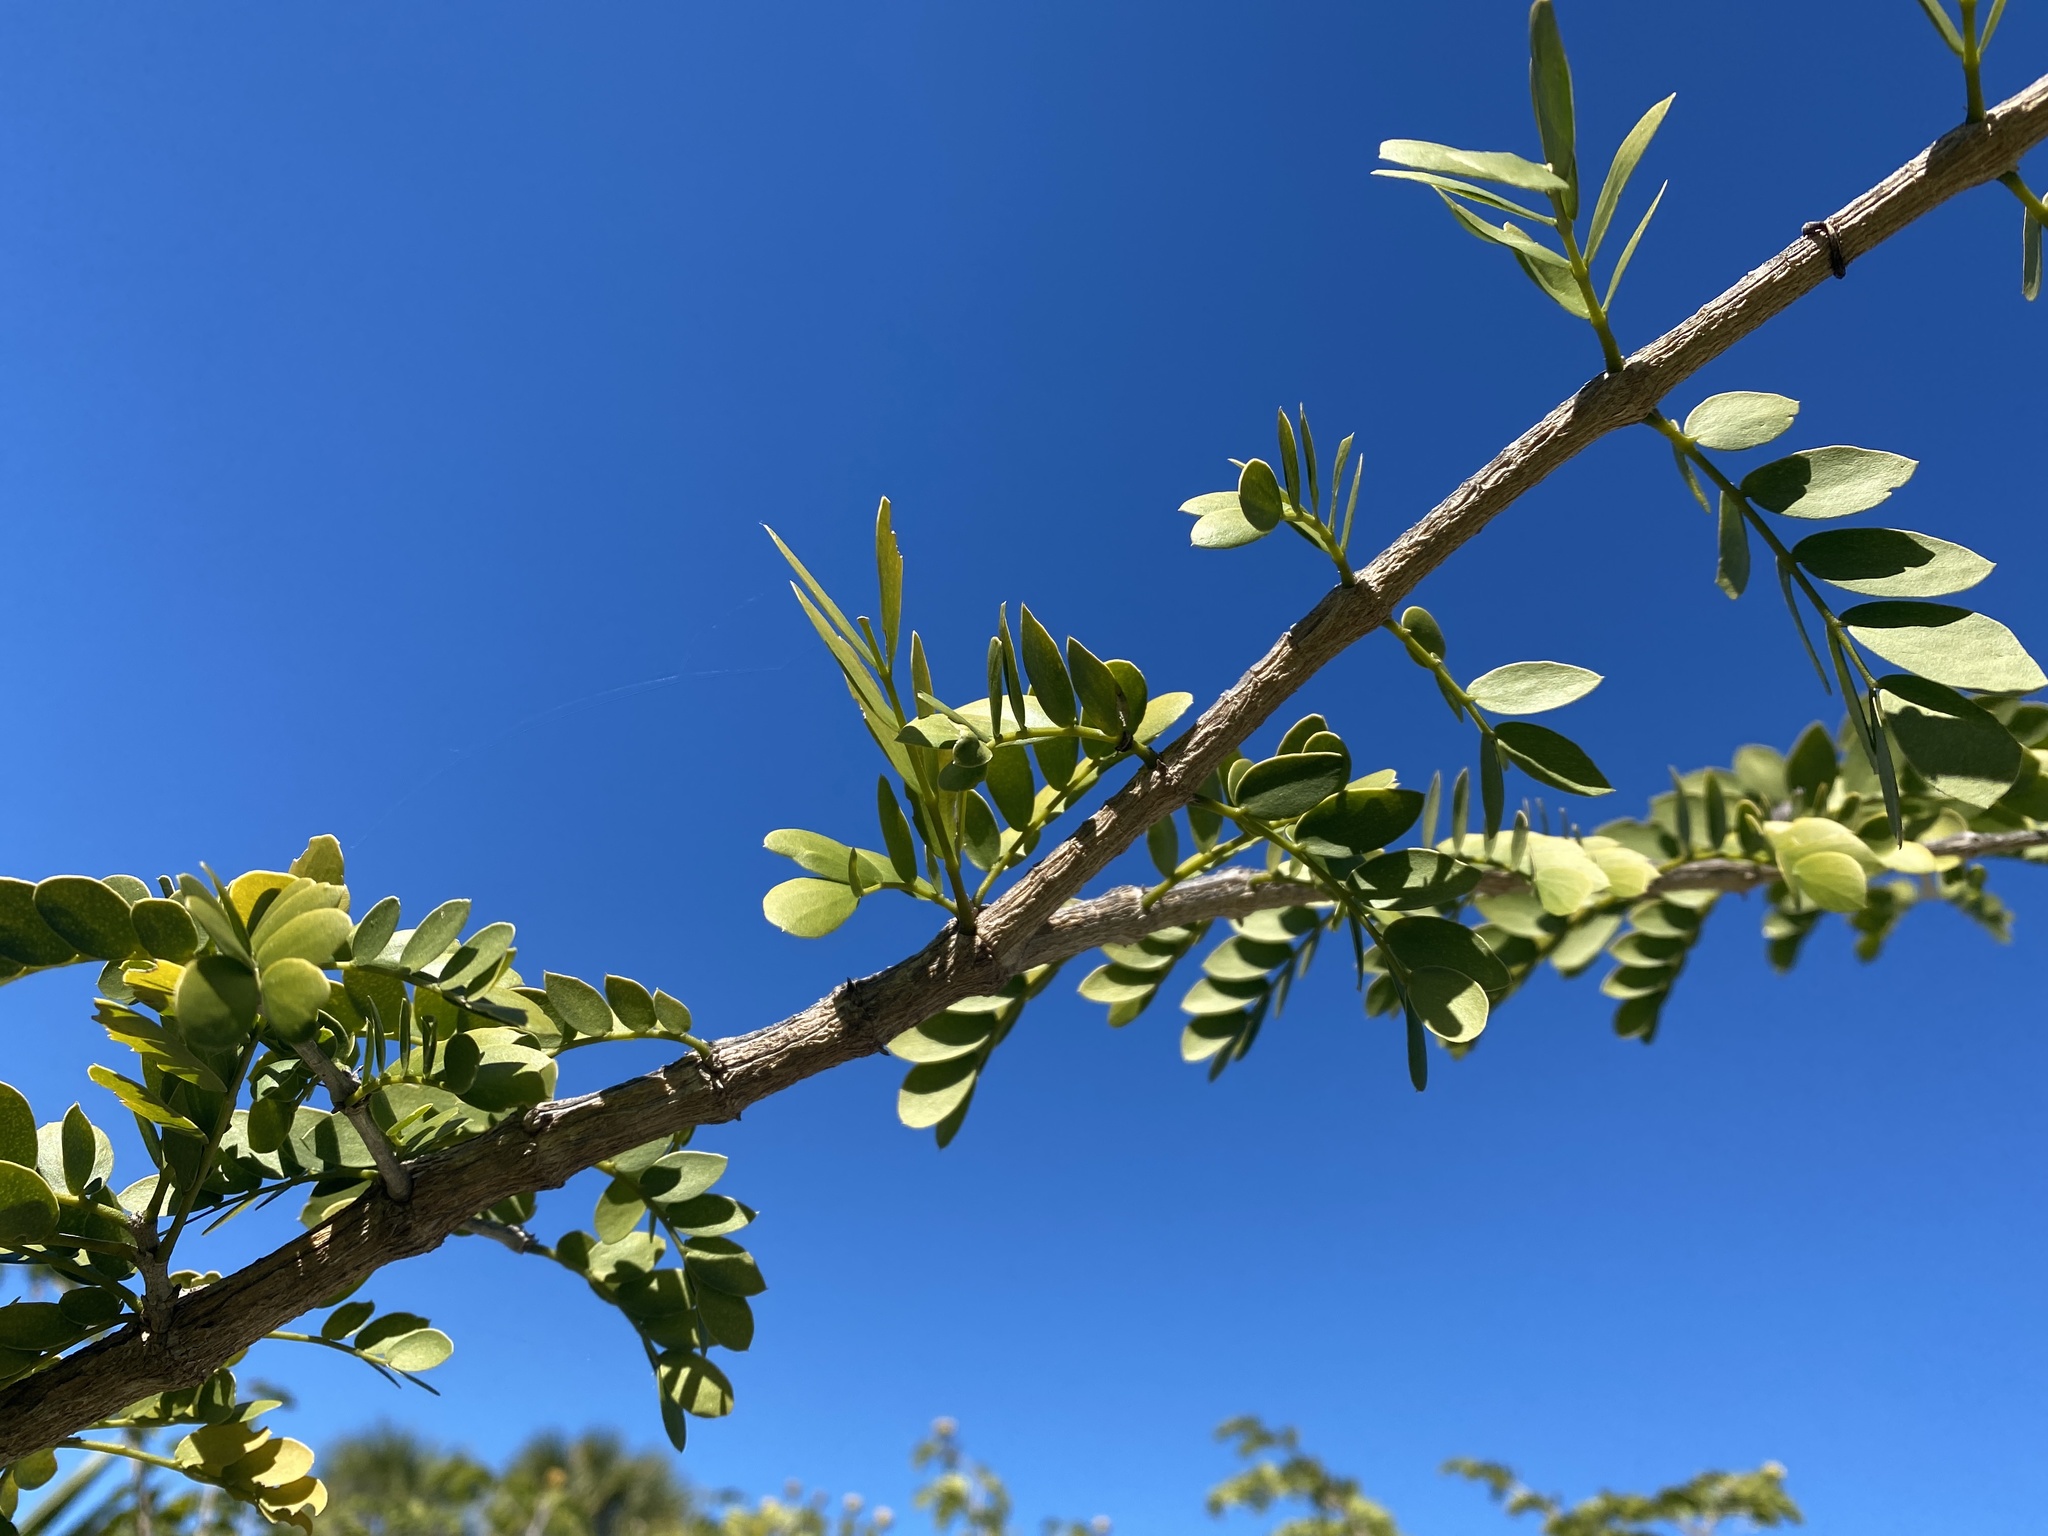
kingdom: Plantae
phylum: Tracheophyta
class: Magnoliopsida
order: Zygophyllales
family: Zygophyllaceae
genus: Guaiacum
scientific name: Guaiacum sanctum
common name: Holywood
